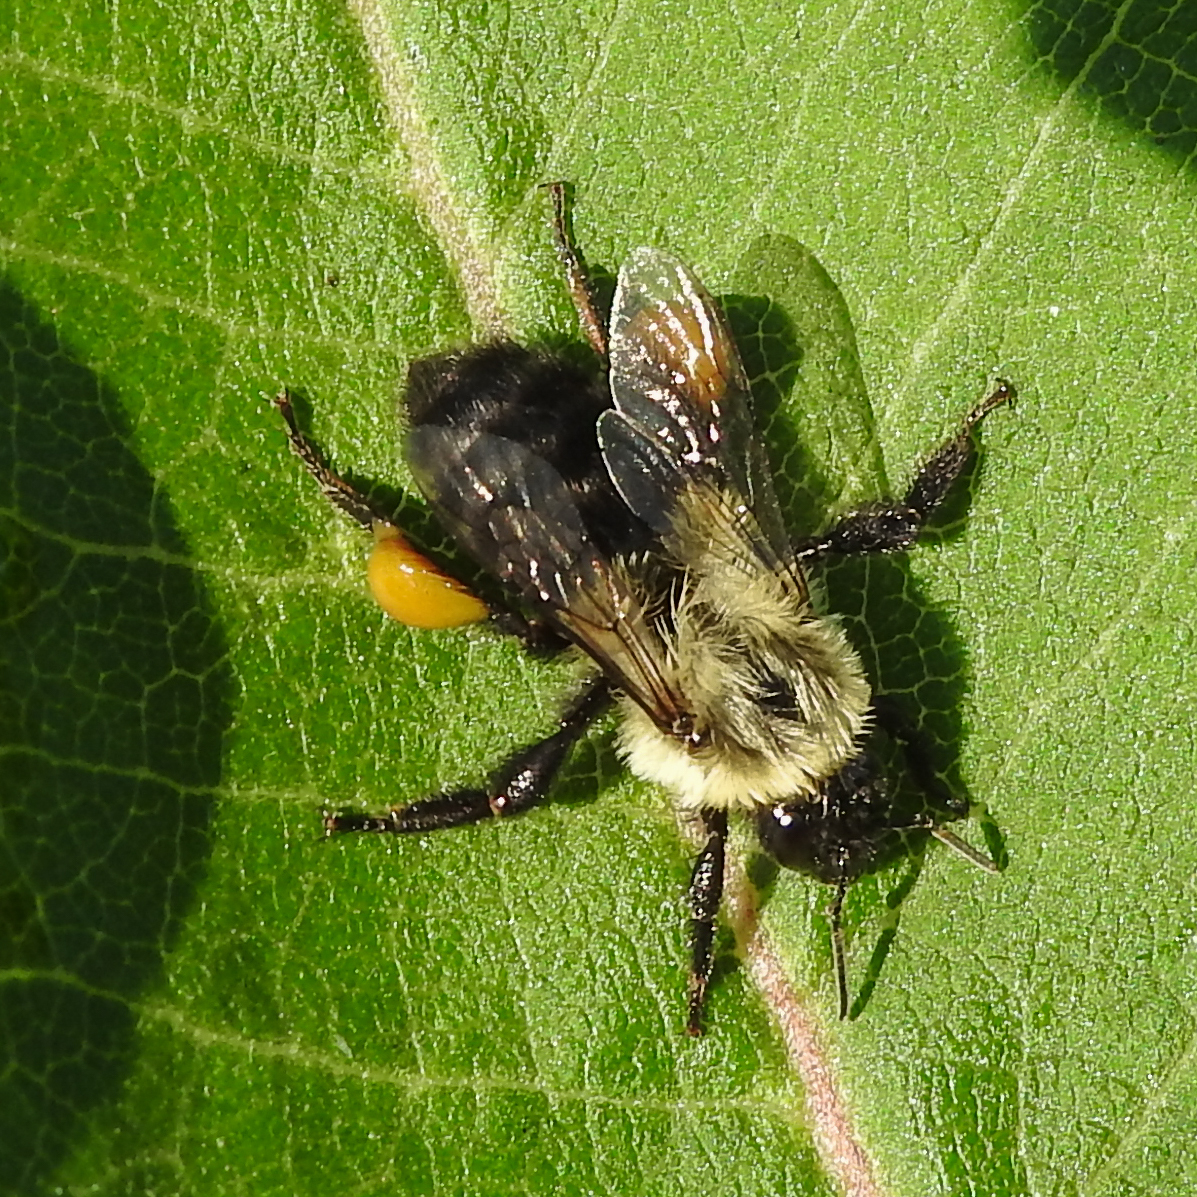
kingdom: Animalia
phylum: Arthropoda
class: Insecta
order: Hymenoptera
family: Apidae
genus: Bombus
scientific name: Bombus impatiens
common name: Common eastern bumble bee
